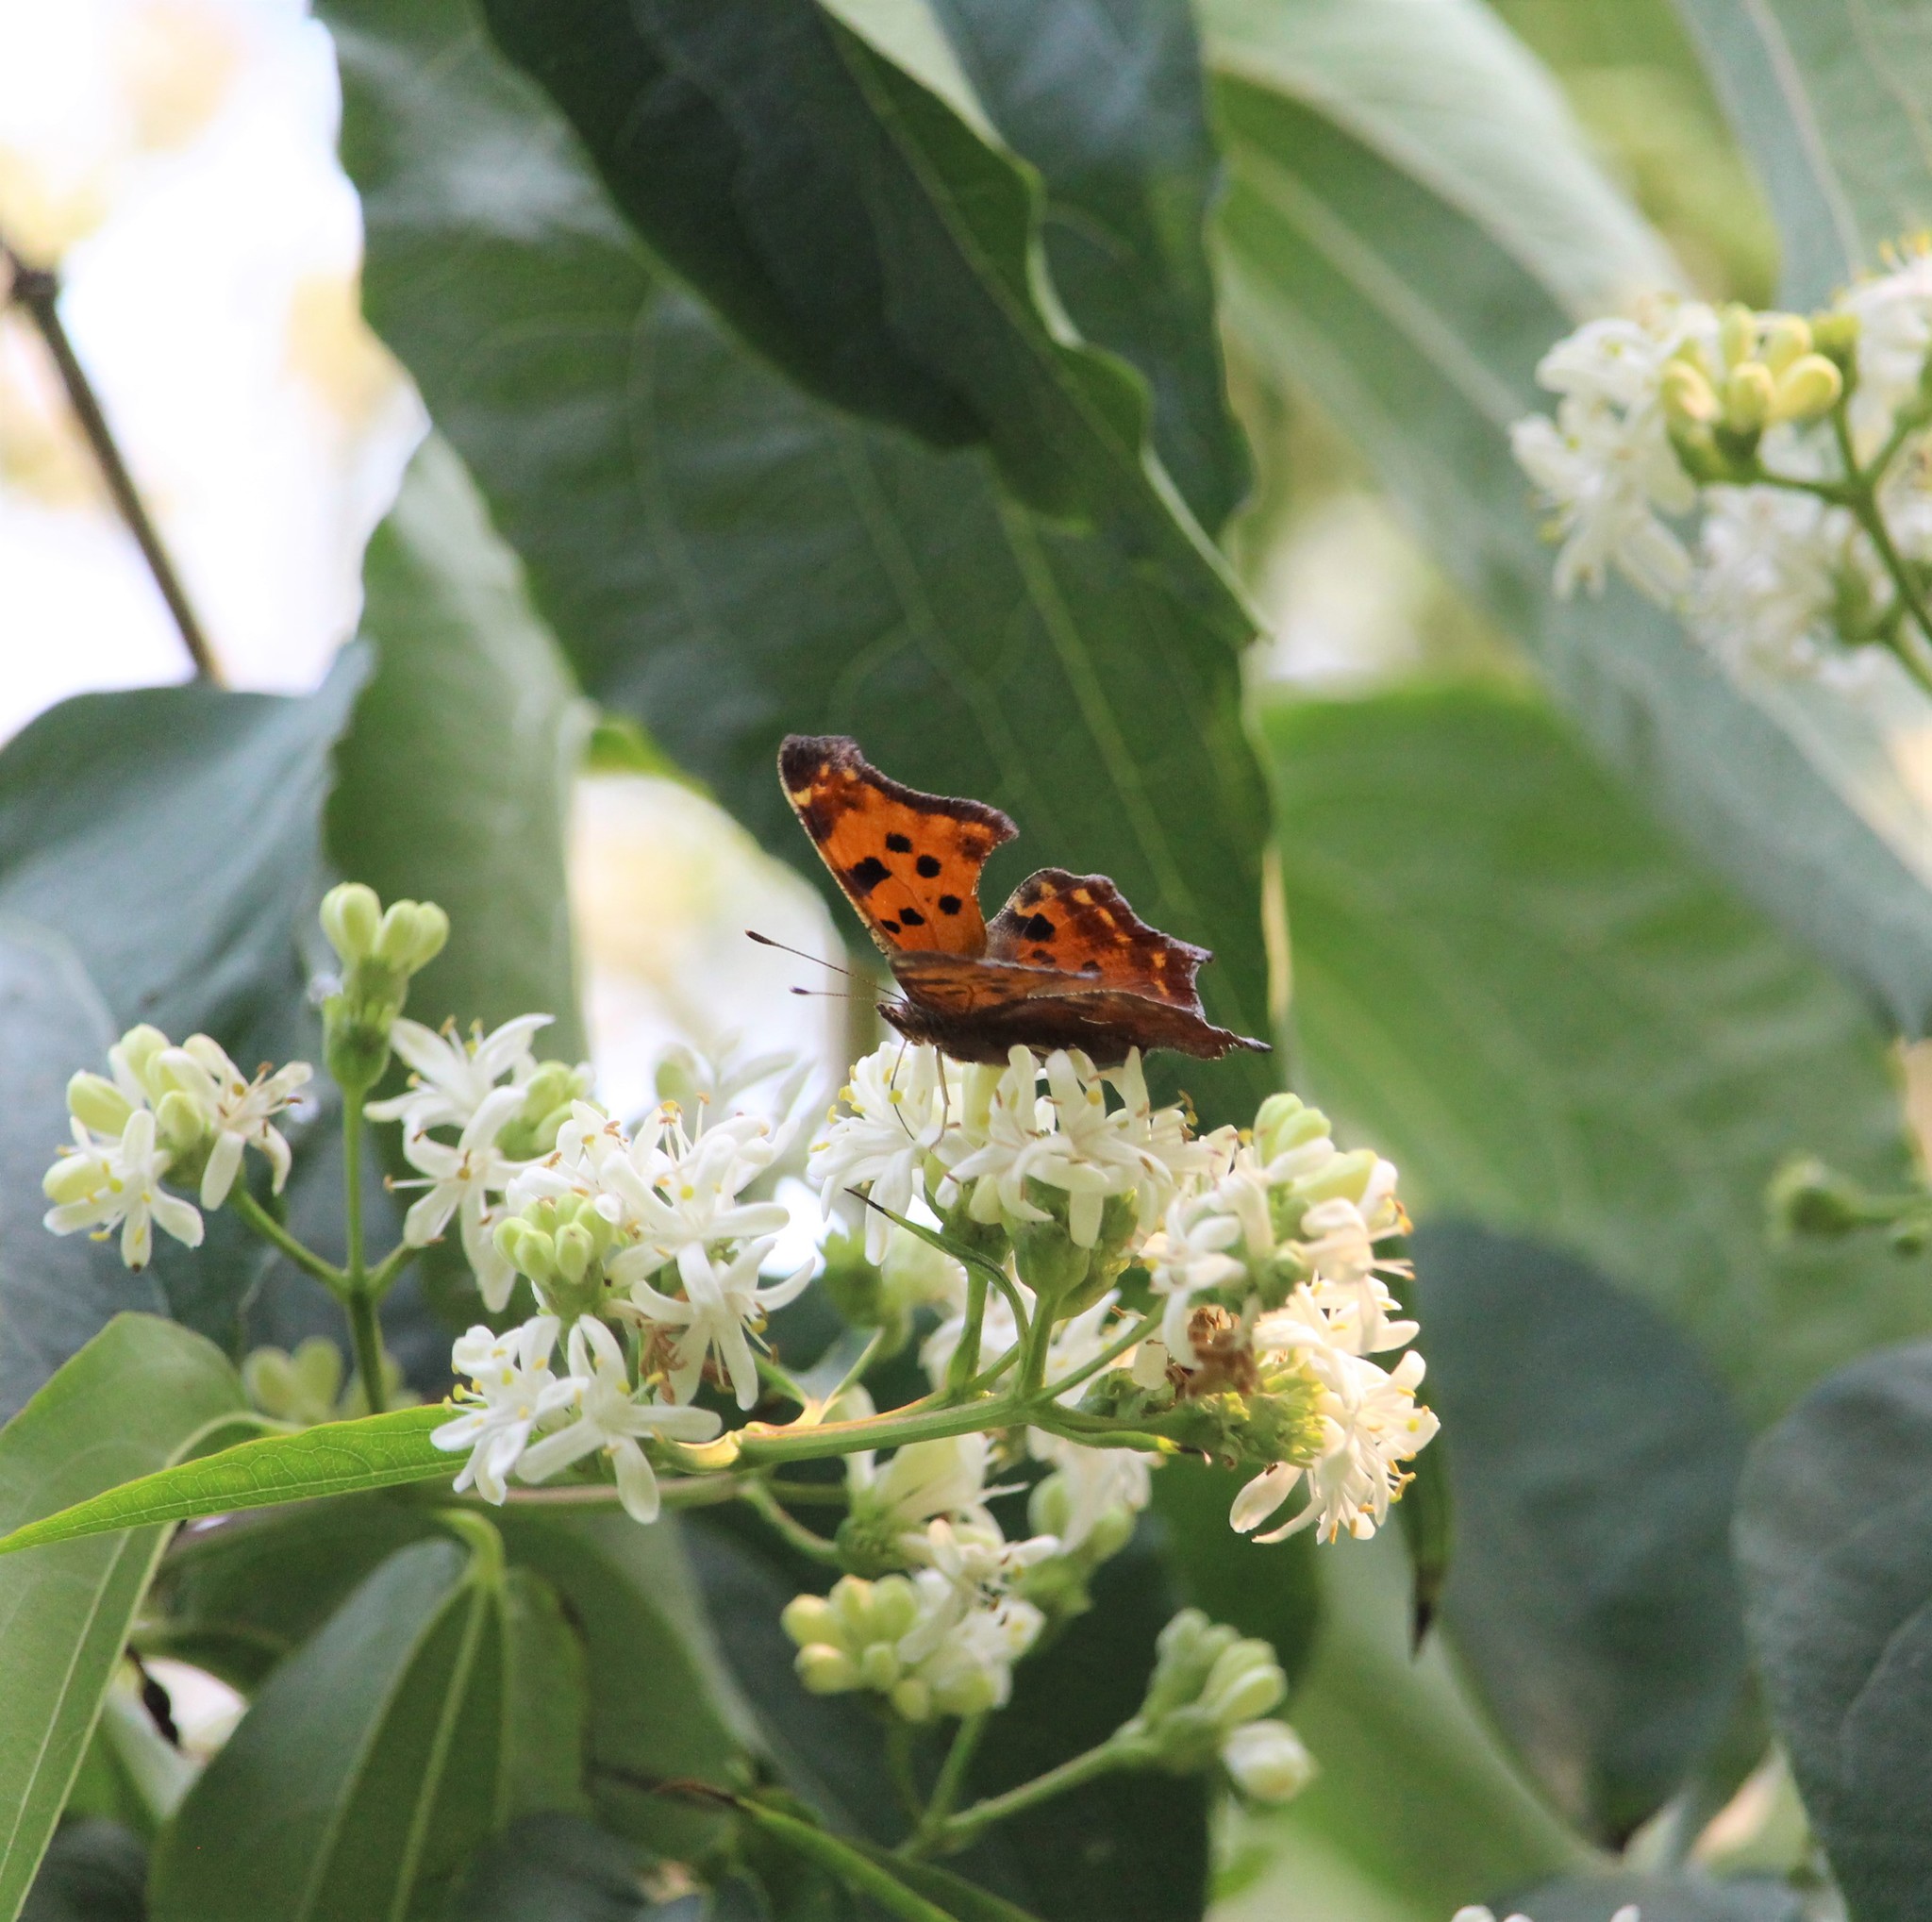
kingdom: Animalia
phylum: Arthropoda
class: Insecta
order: Lepidoptera
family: Nymphalidae
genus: Polygonia
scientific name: Polygonia comma
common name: Eastern comma
